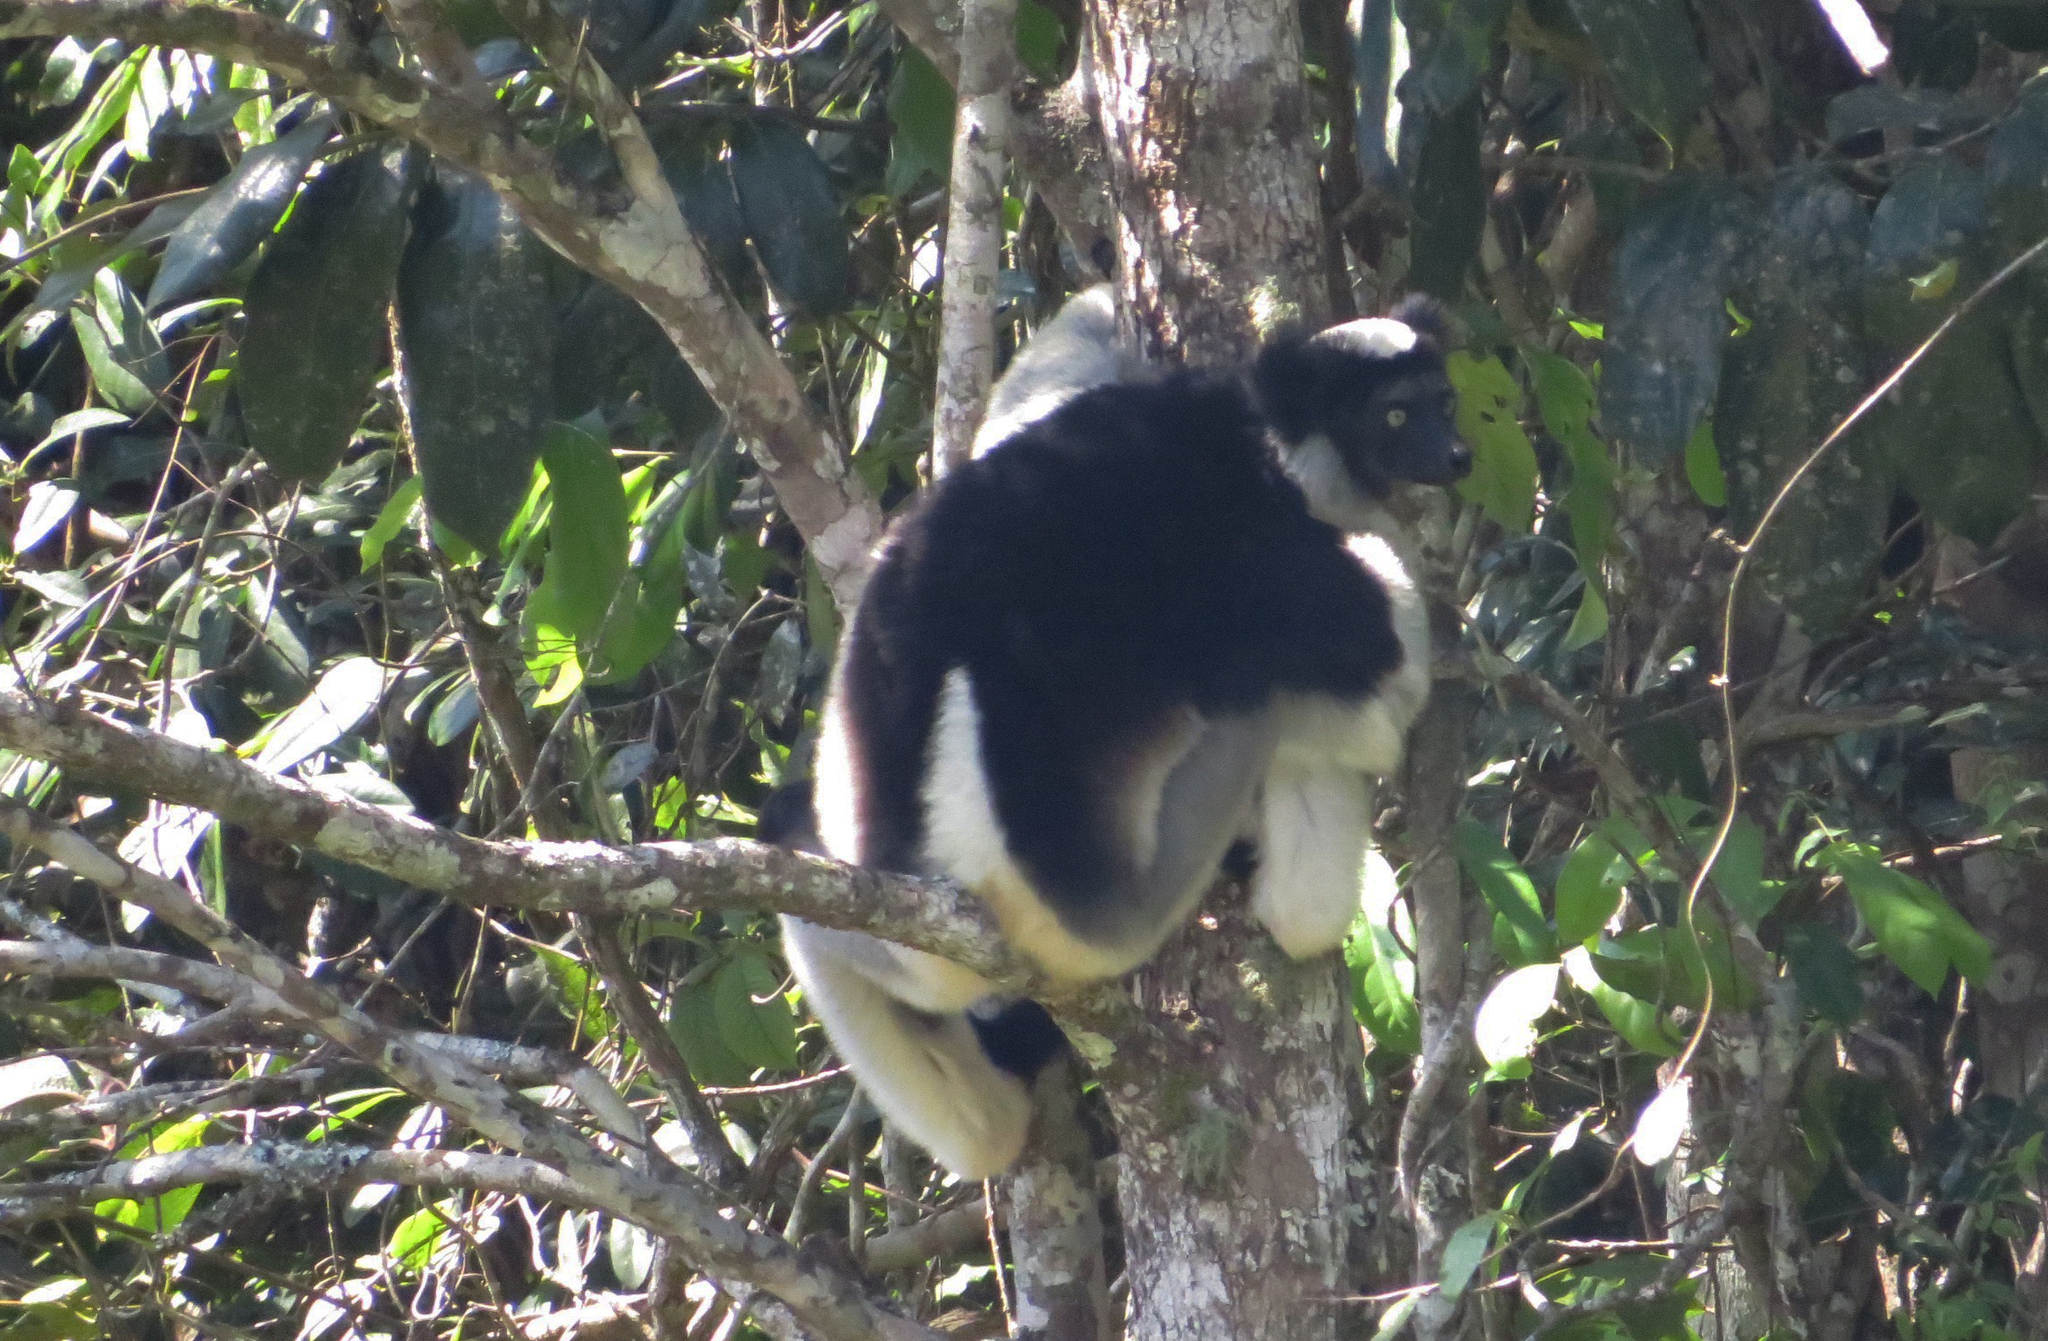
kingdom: Animalia
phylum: Chordata
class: Mammalia
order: Primates
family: Indriidae
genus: Indri
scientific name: Indri indri
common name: Indri
